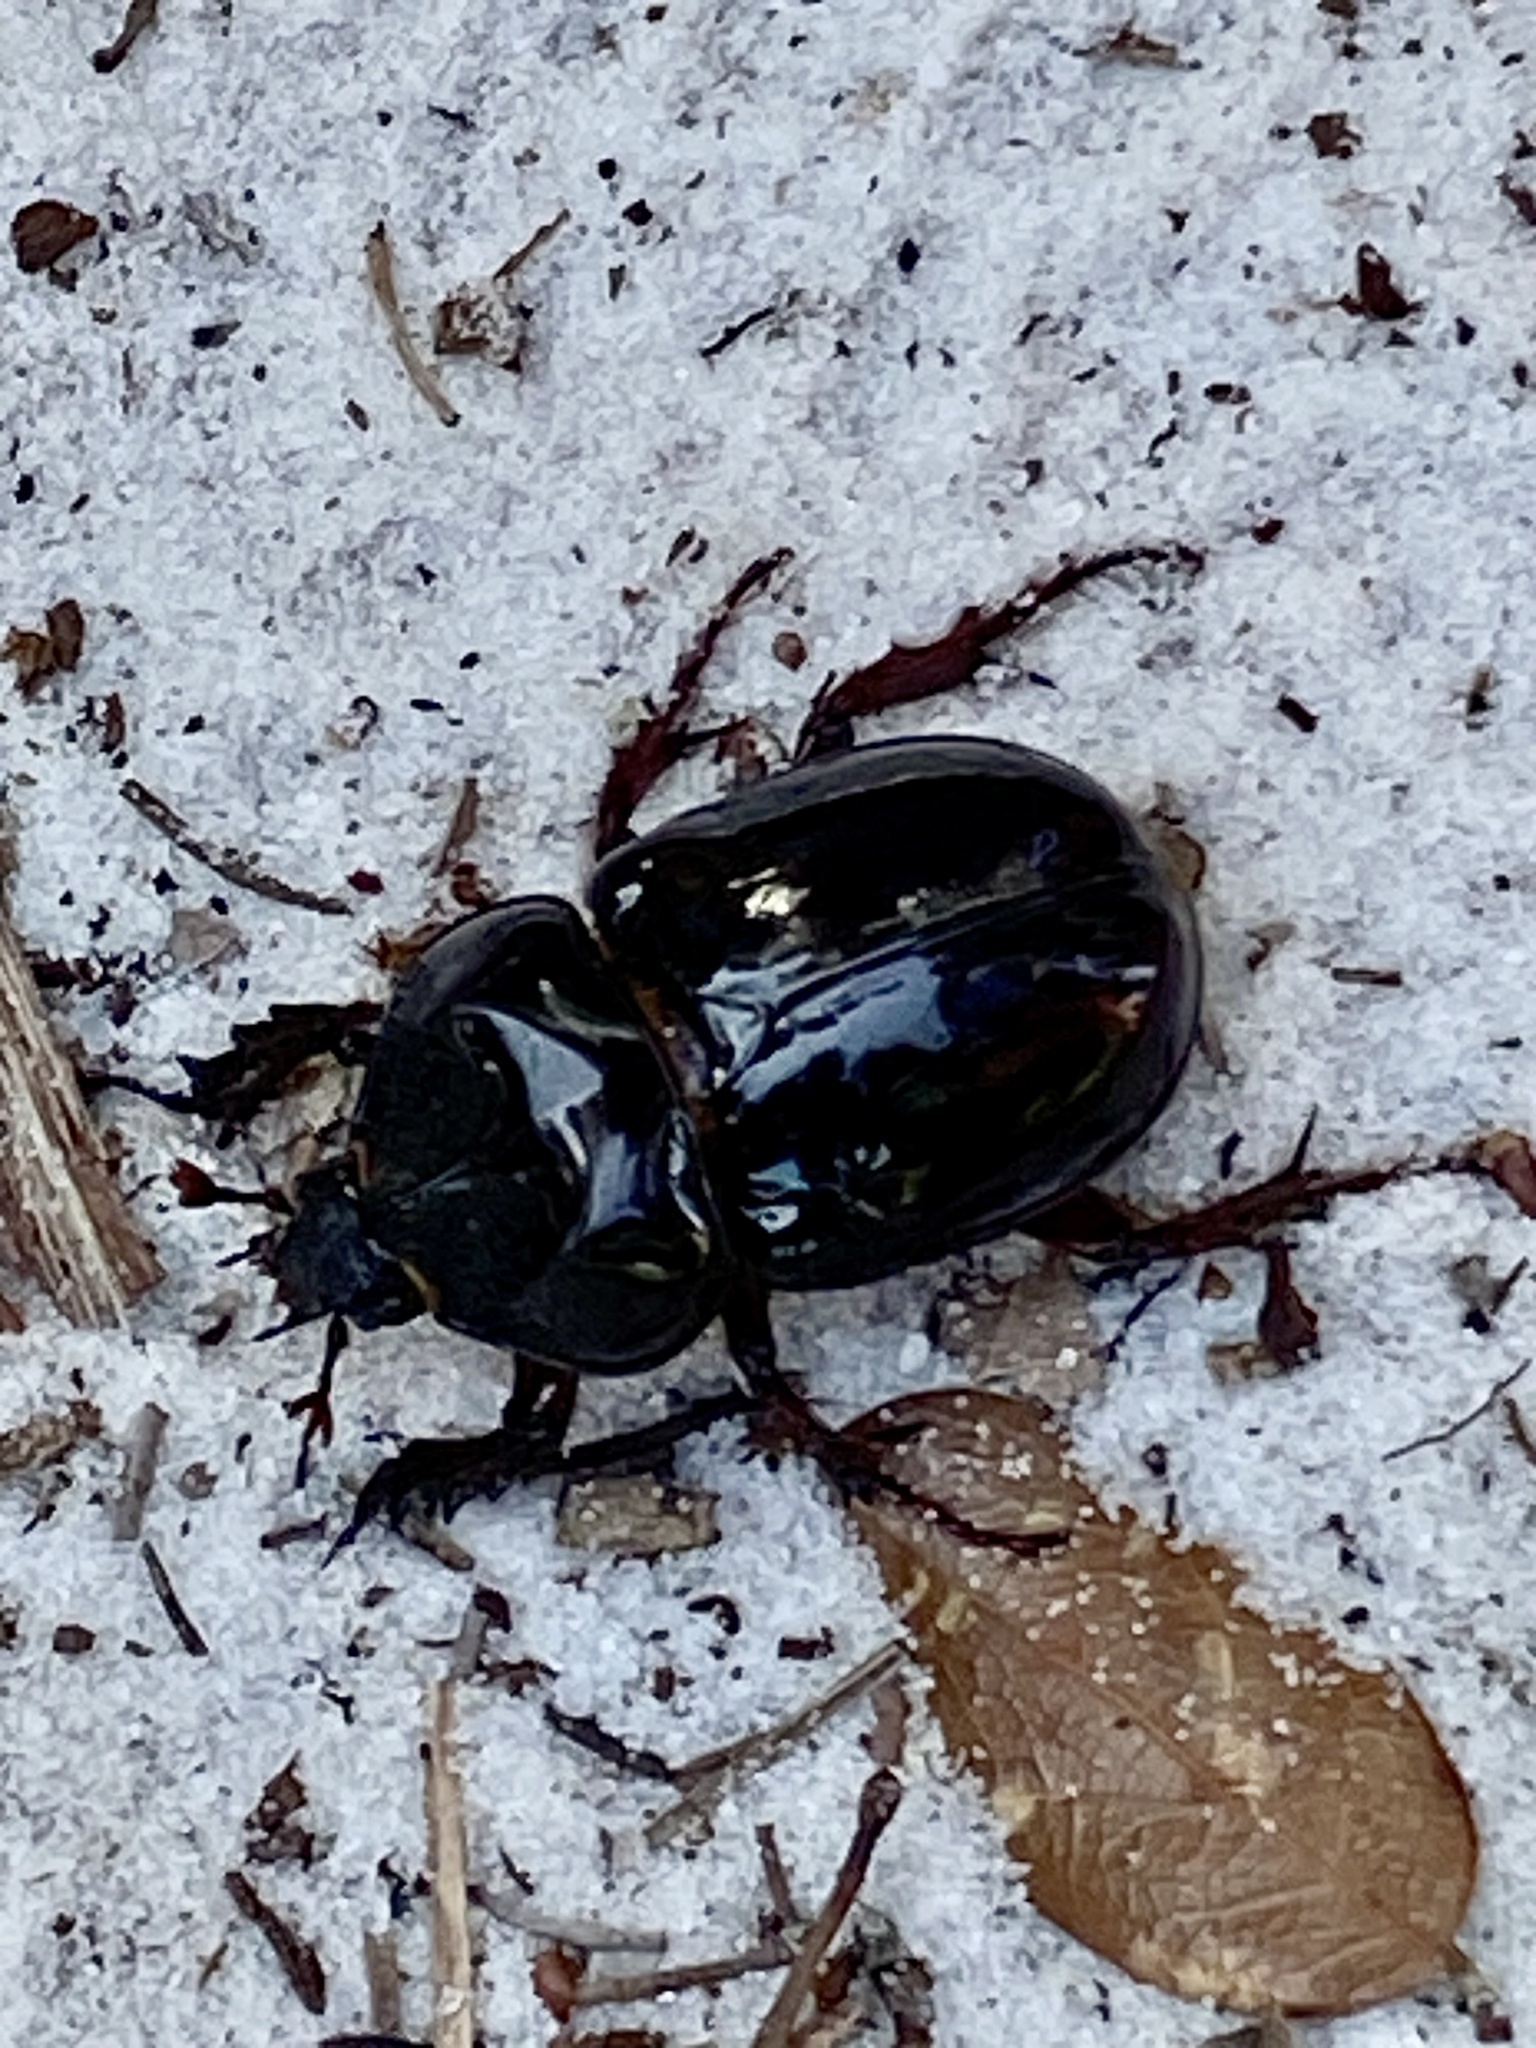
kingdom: Animalia
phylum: Arthropoda
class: Insecta
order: Coleoptera
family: Scarabaeidae
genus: Strategus
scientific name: Strategus antaeus
